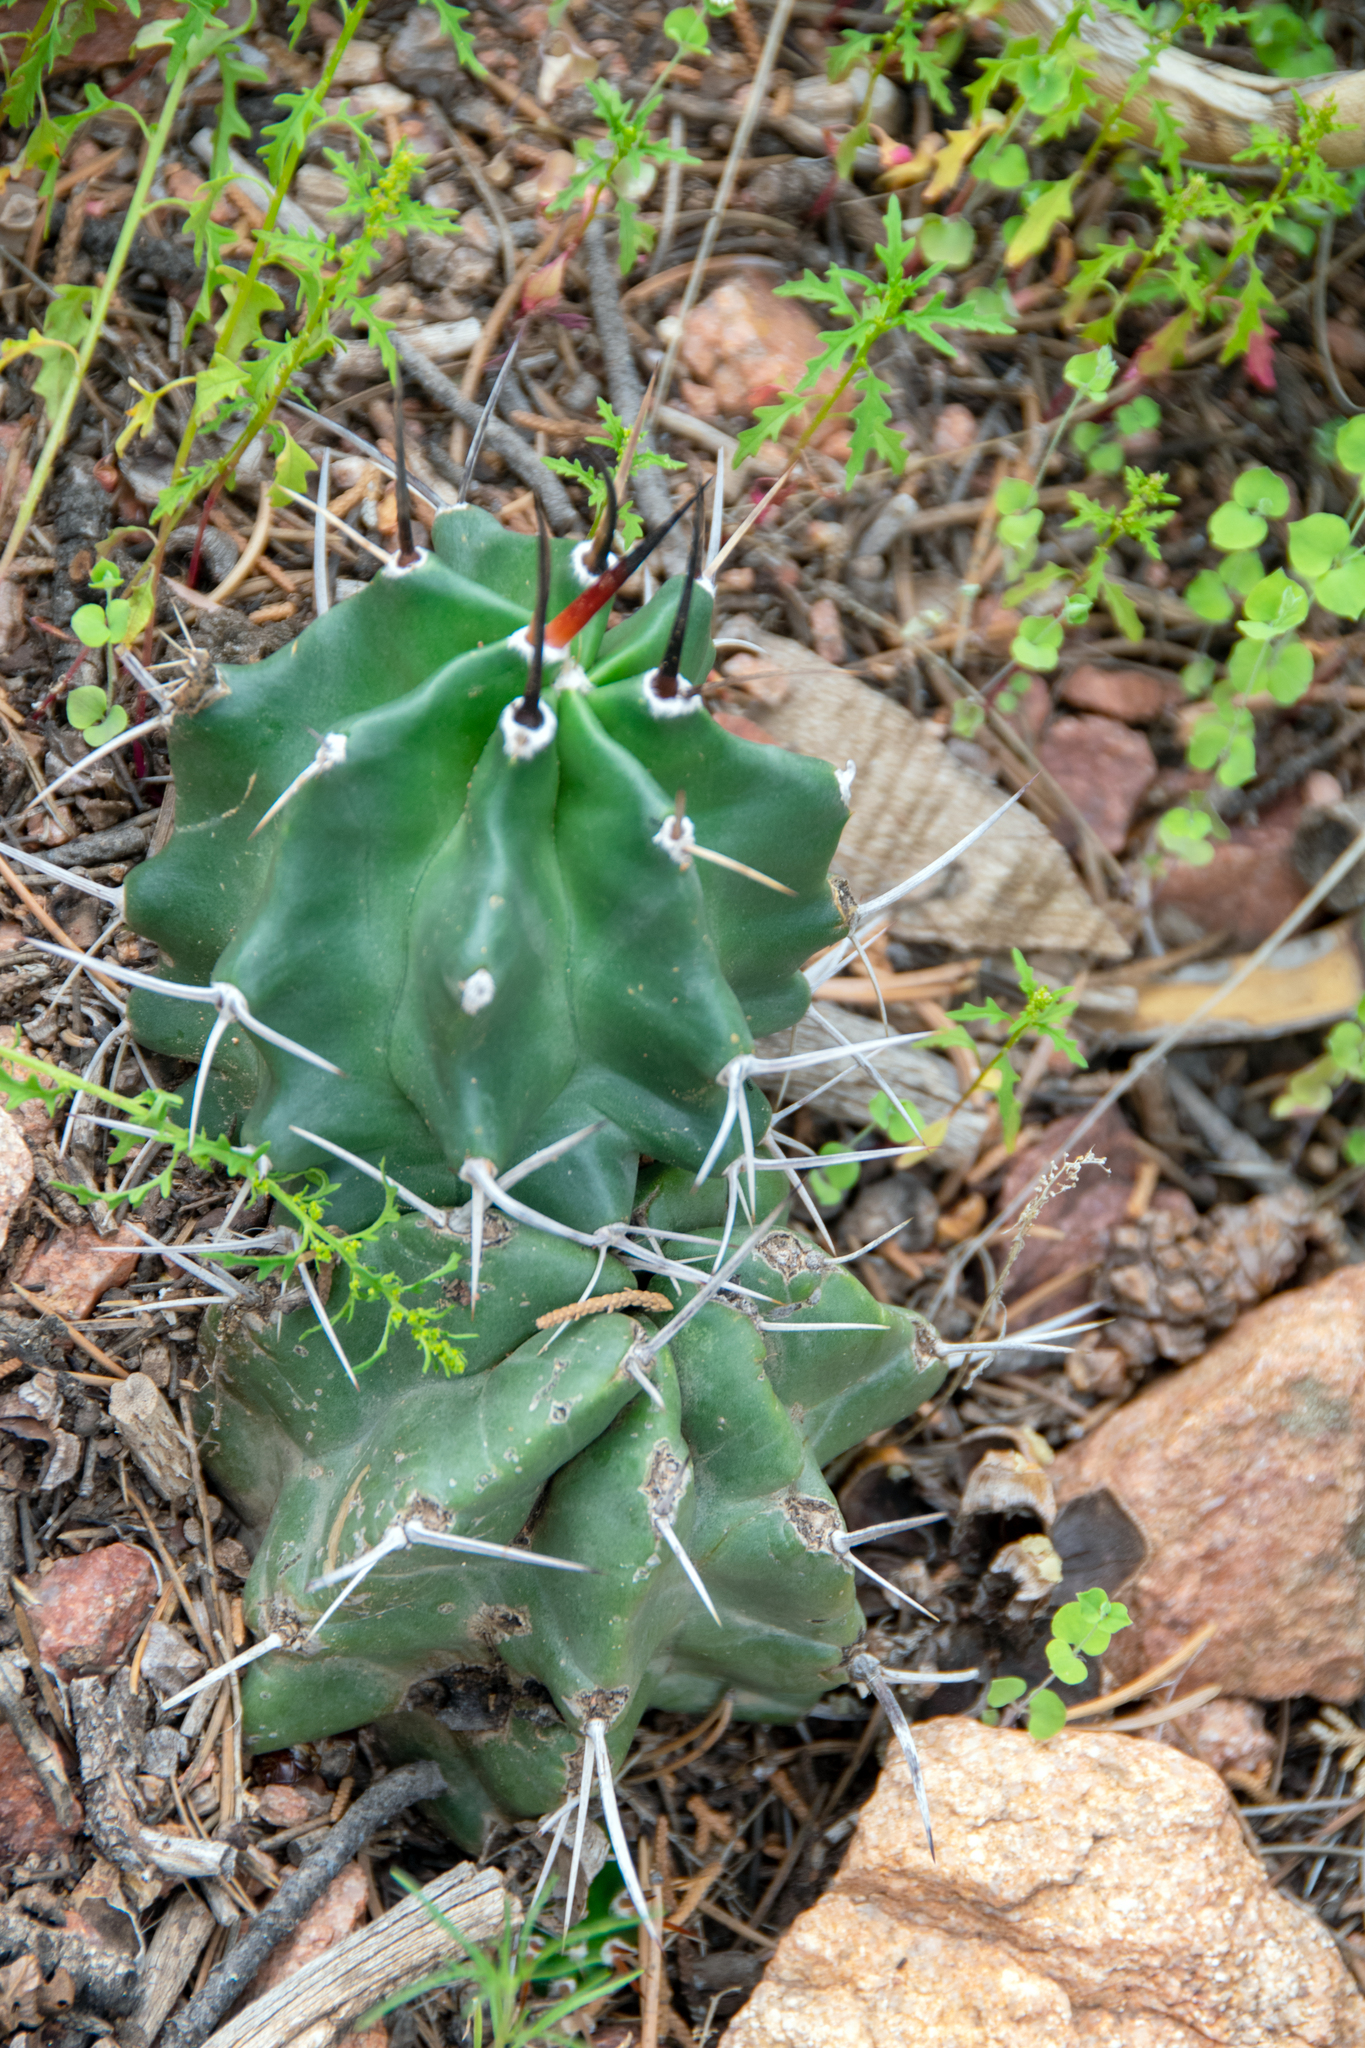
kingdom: Plantae
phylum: Tracheophyta
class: Magnoliopsida
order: Caryophyllales
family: Cactaceae
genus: Echinocereus
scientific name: Echinocereus triglochidiatus
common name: Claretcup hedgehog
